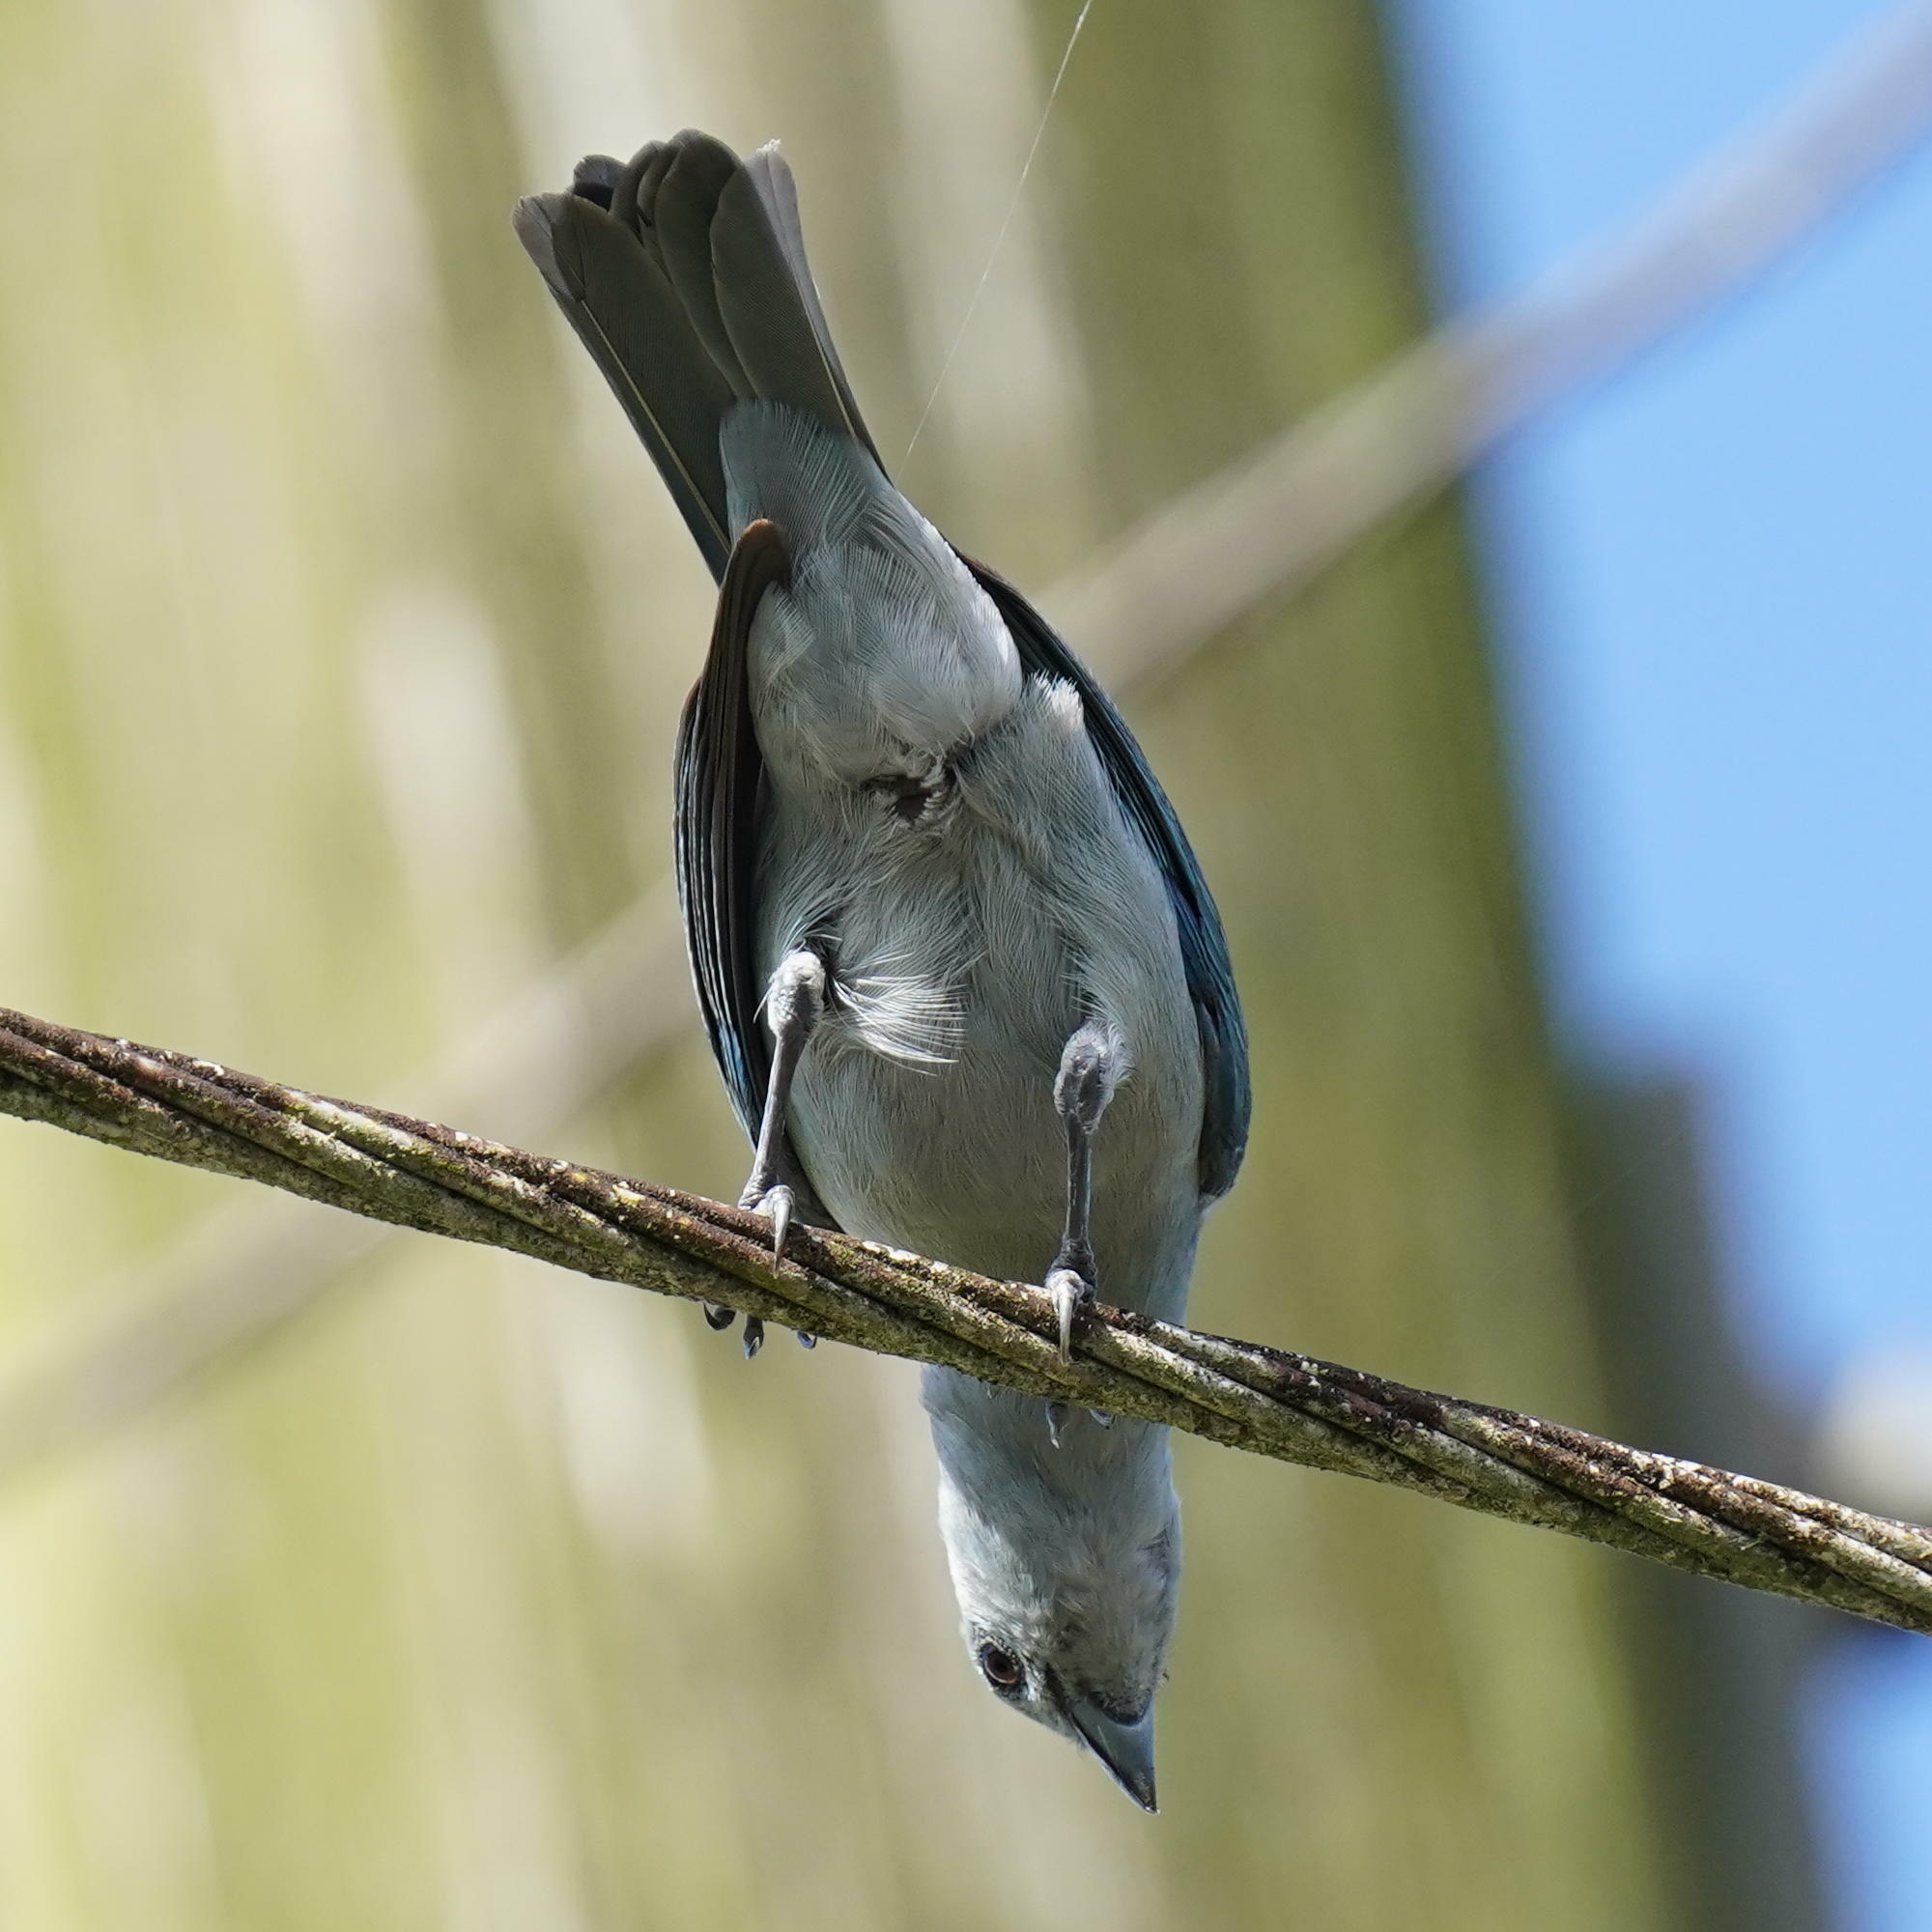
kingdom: Animalia
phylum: Chordata
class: Aves
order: Passeriformes
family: Thraupidae
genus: Thraupis
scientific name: Thraupis episcopus
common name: Blue-grey tanager
